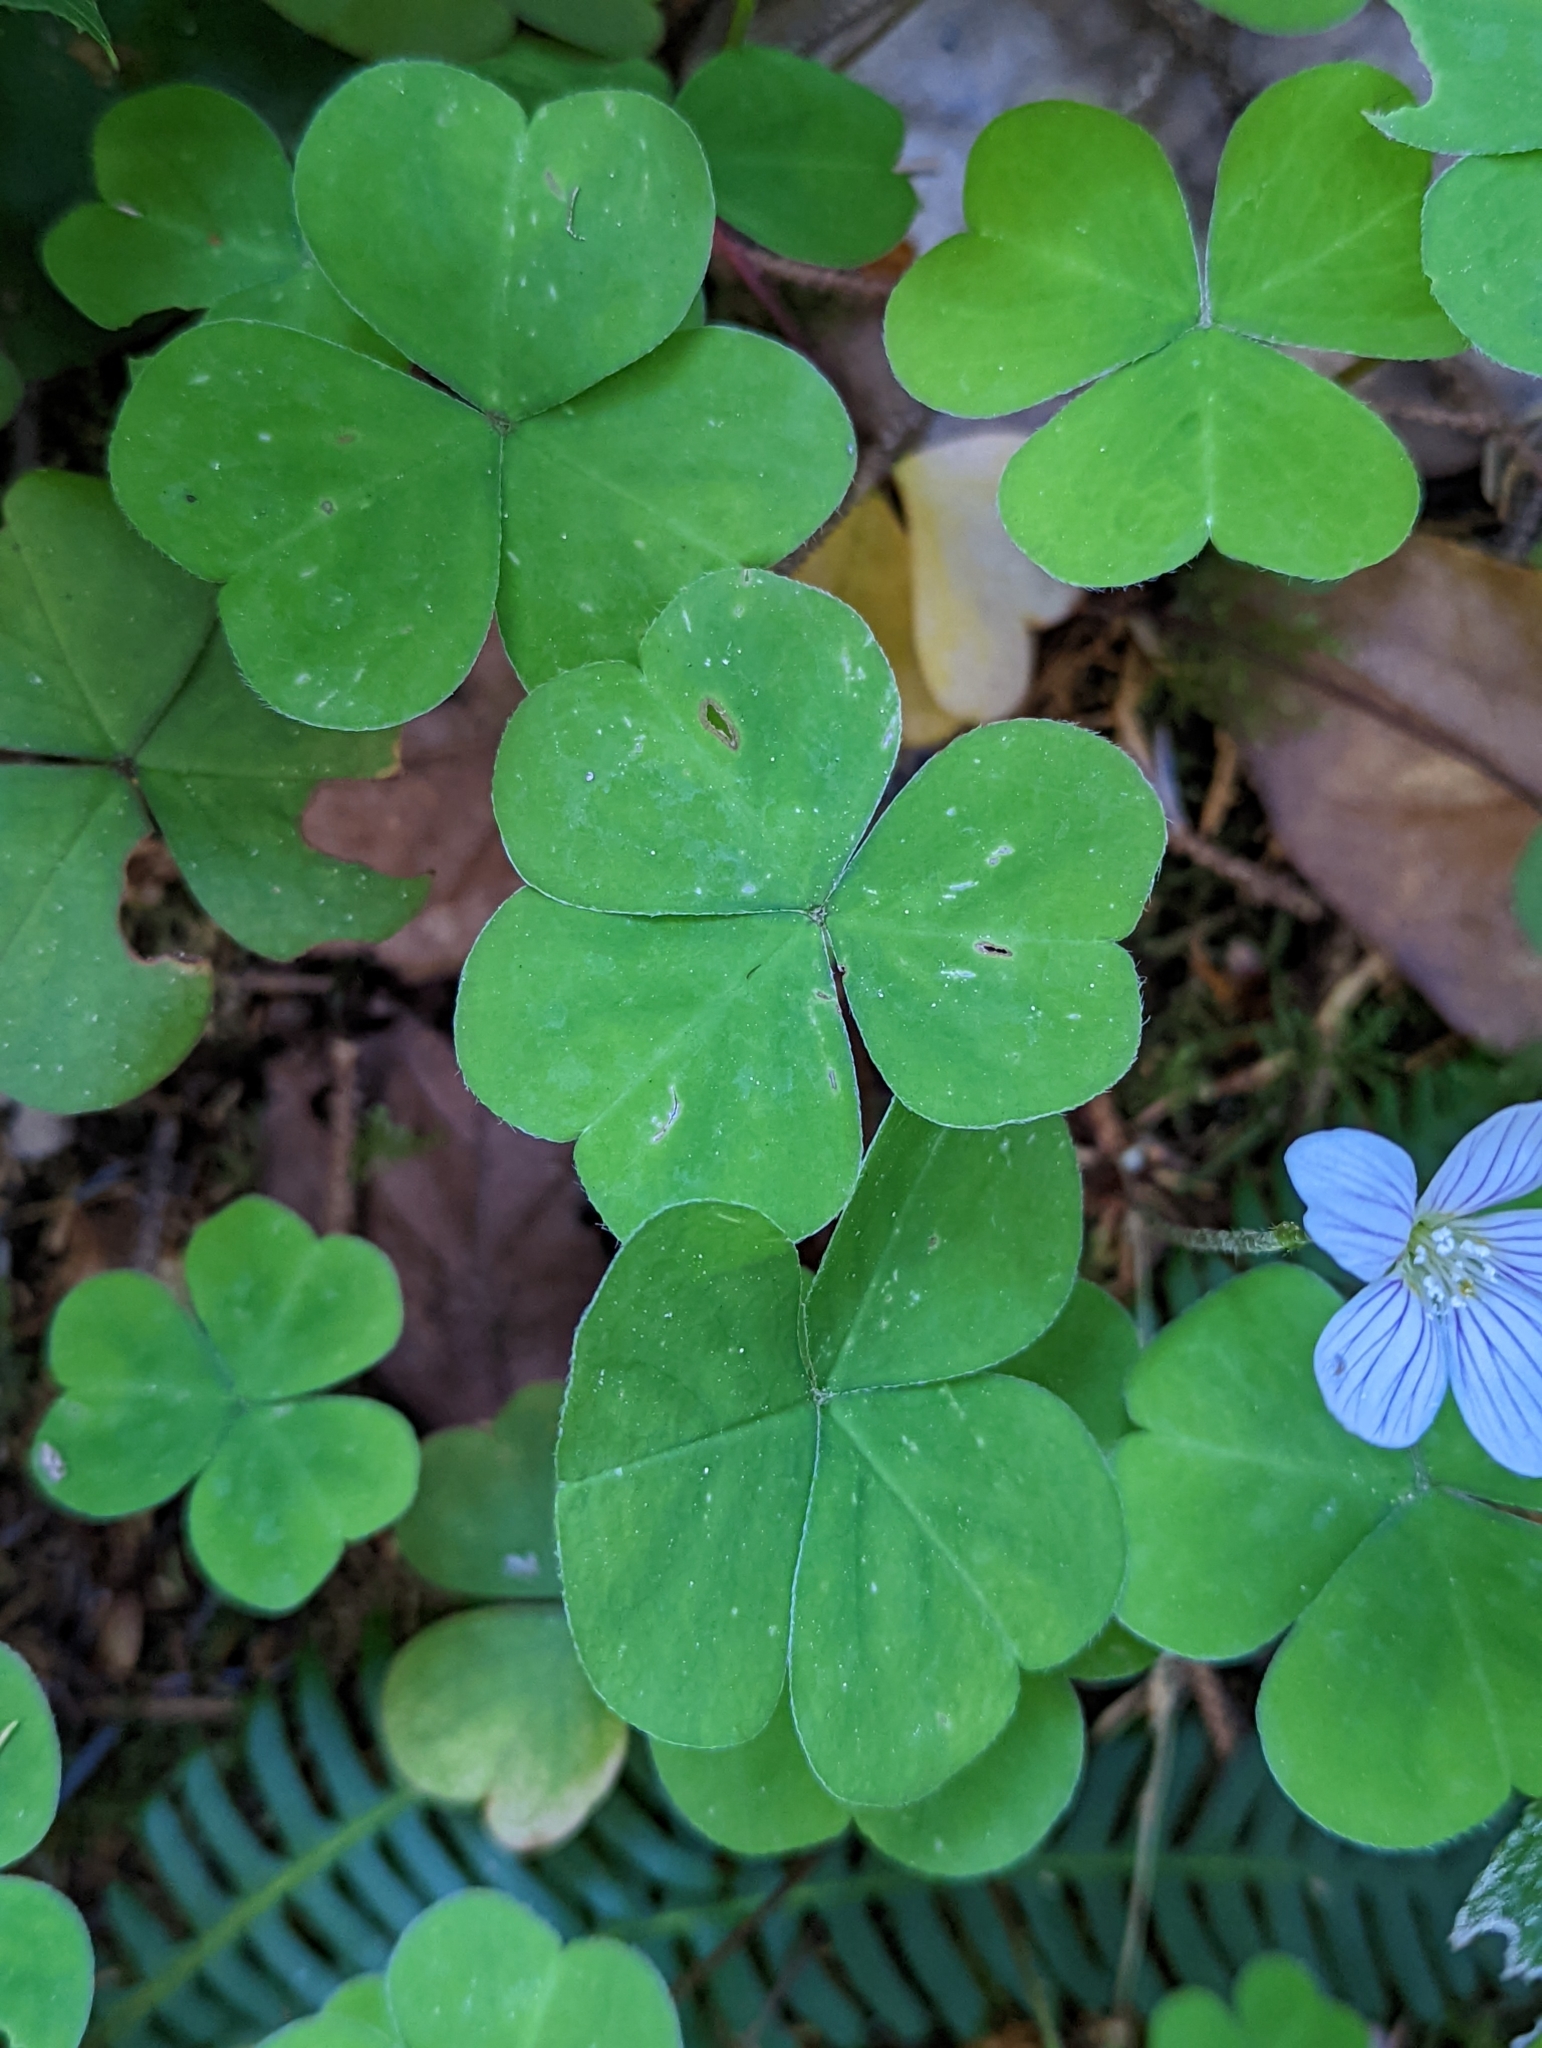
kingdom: Plantae
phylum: Tracheophyta
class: Magnoliopsida
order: Oxalidales
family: Oxalidaceae
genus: Oxalis
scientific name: Oxalis oregana
